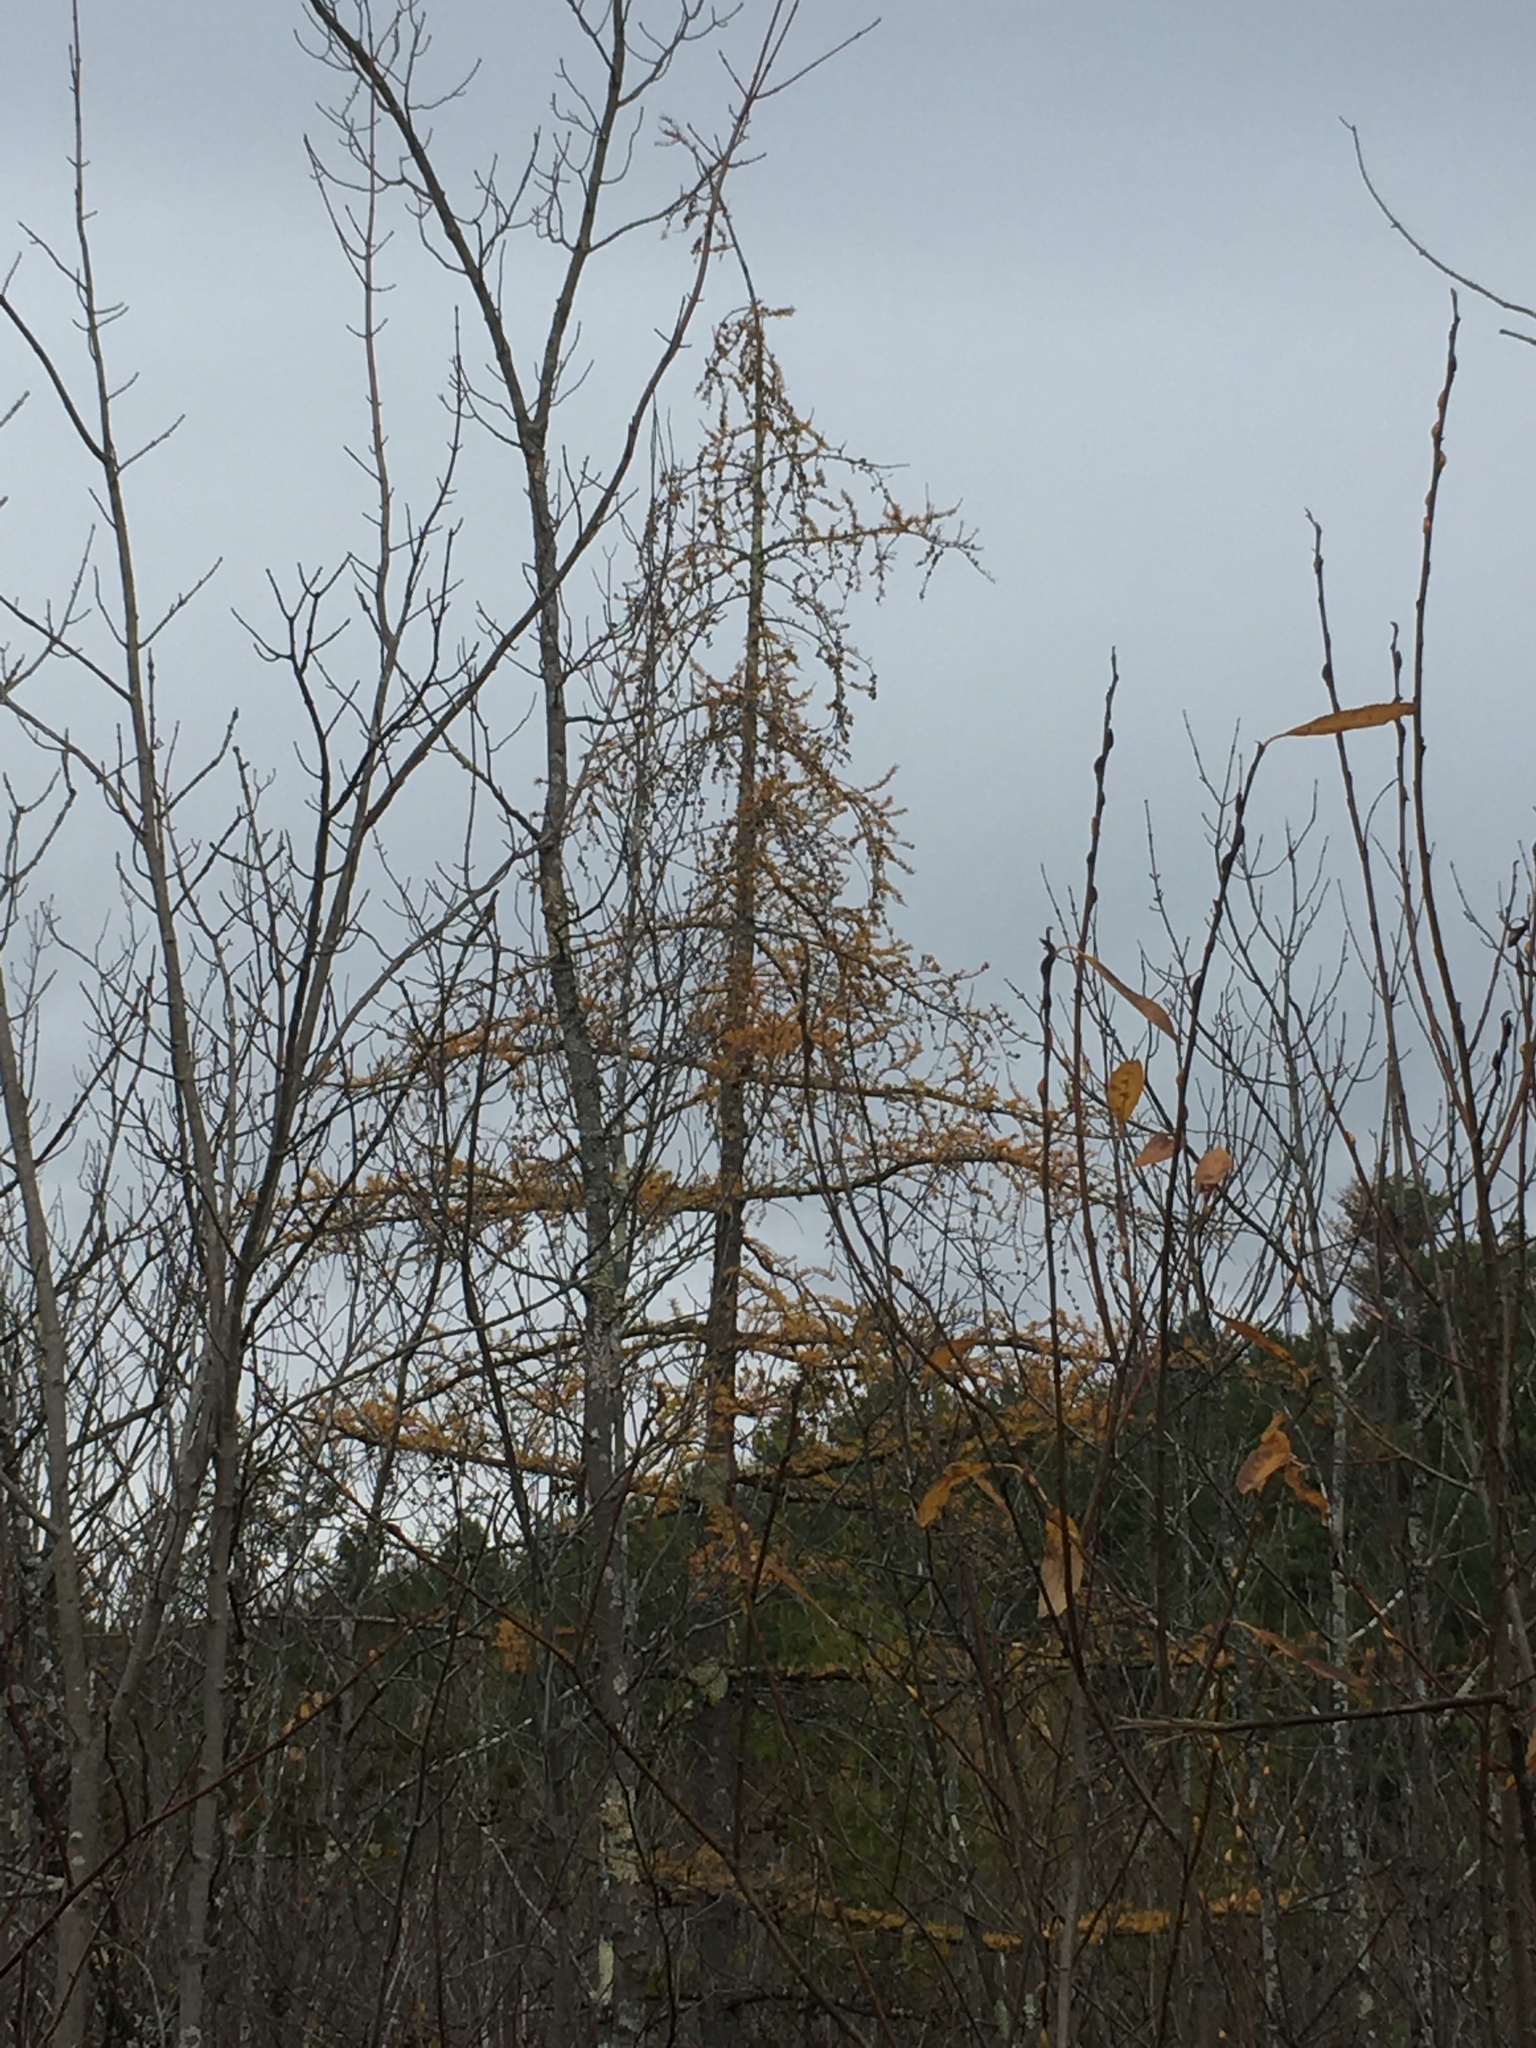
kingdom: Plantae
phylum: Tracheophyta
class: Pinopsida
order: Pinales
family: Pinaceae
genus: Larix
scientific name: Larix laricina
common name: American larch
